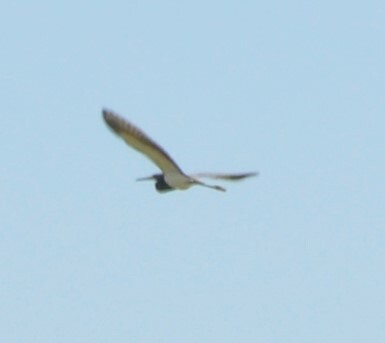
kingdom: Animalia
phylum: Chordata
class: Aves
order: Pelecaniformes
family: Ardeidae
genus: Egretta
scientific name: Egretta tricolor
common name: Tricolored heron
